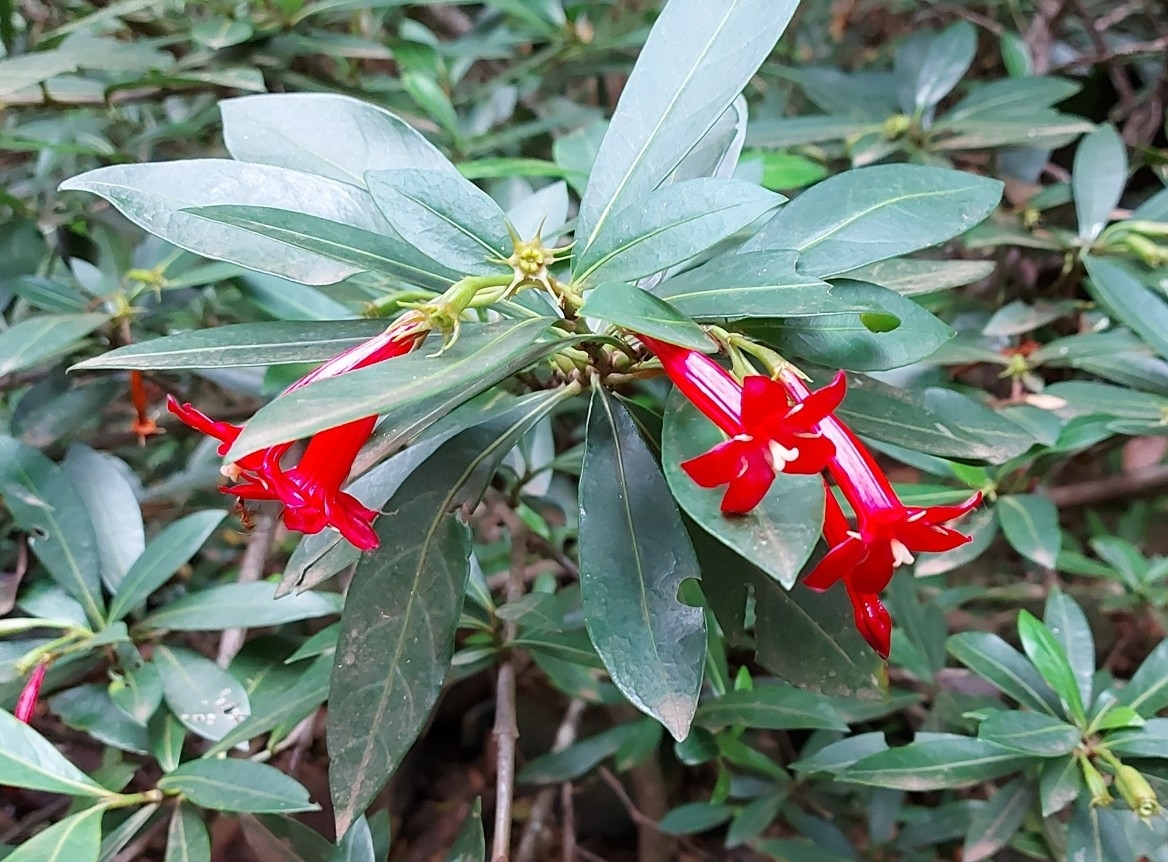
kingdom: Plantae
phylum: Tracheophyta
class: Magnoliopsida
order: Gentianales
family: Rubiaceae
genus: Augusta
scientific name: Augusta longifolia
